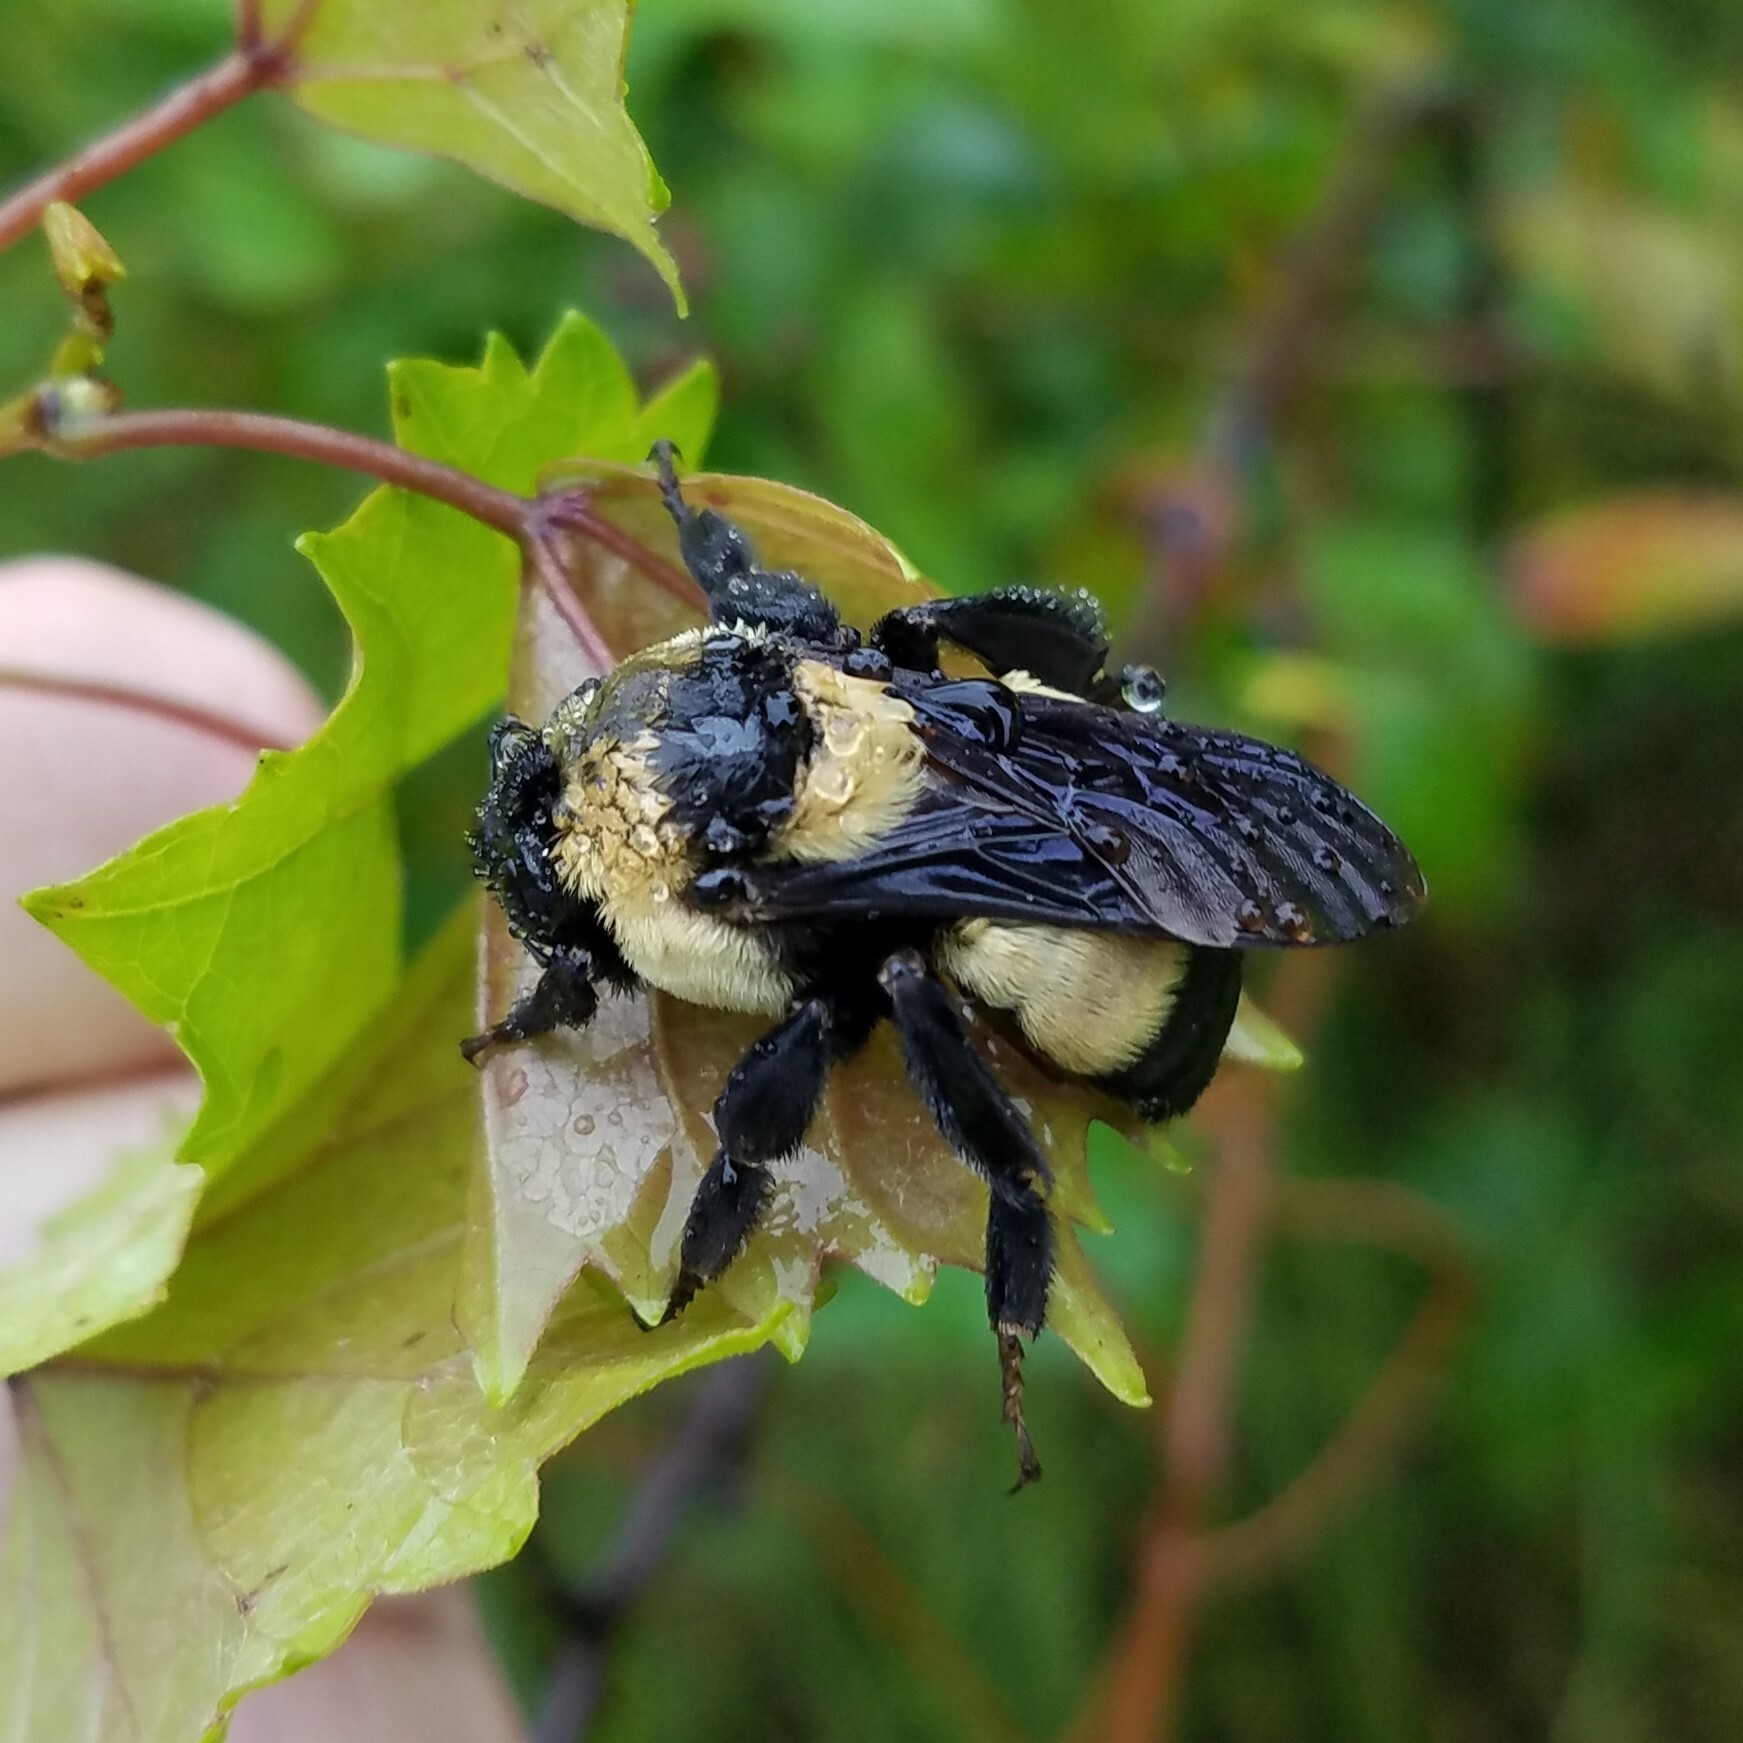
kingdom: Animalia
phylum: Arthropoda
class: Insecta
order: Hymenoptera
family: Apidae
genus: Bombus
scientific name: Bombus fraternus
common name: Southern plains bumble bee
